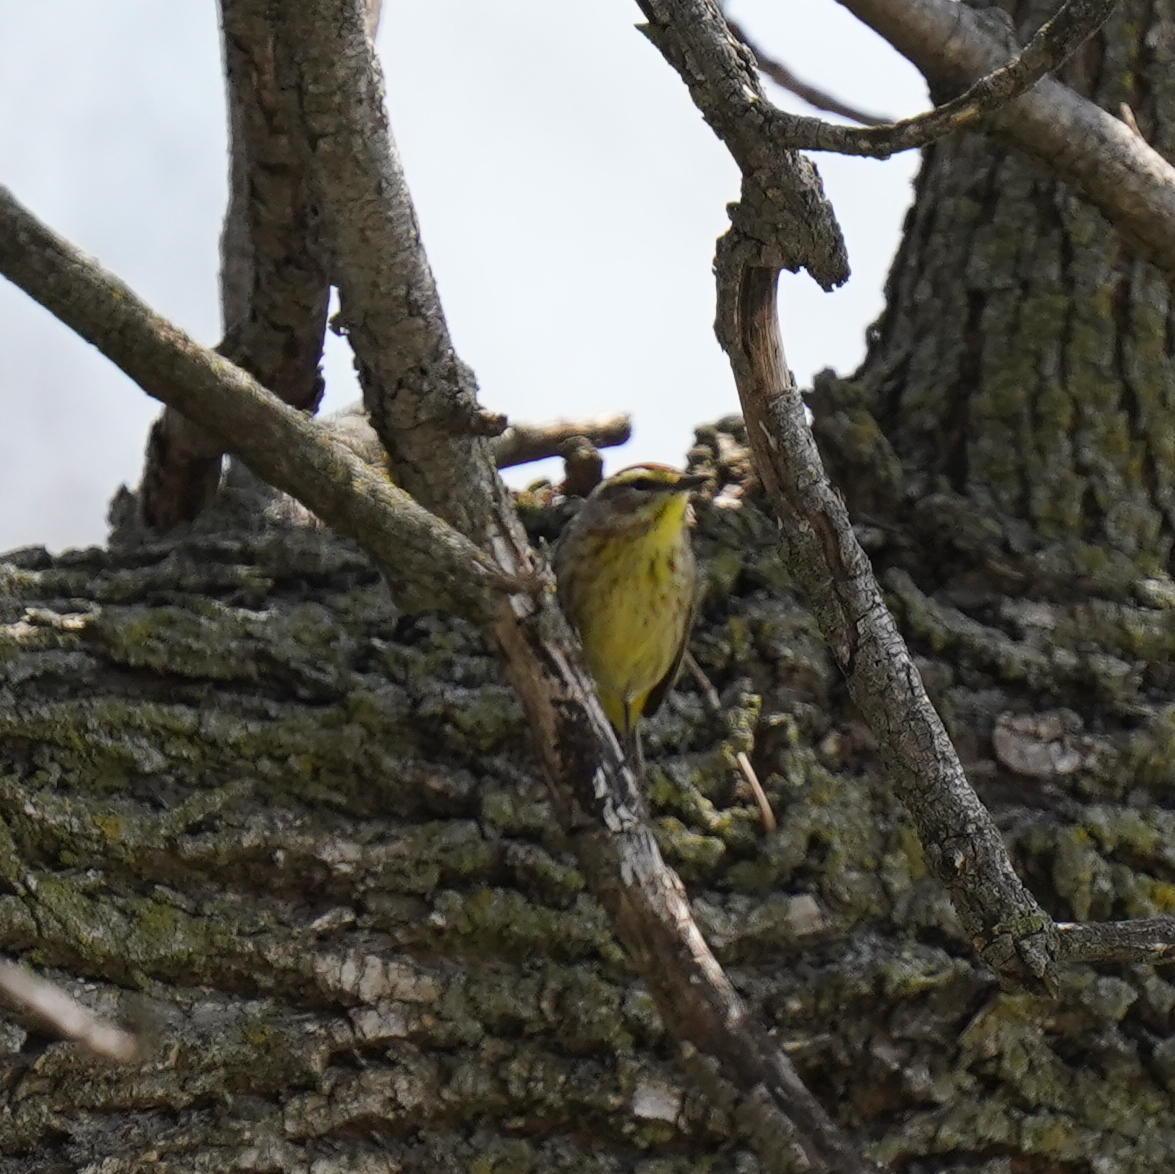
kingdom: Animalia
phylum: Chordata
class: Aves
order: Passeriformes
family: Parulidae
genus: Setophaga
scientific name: Setophaga palmarum
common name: Palm warbler
